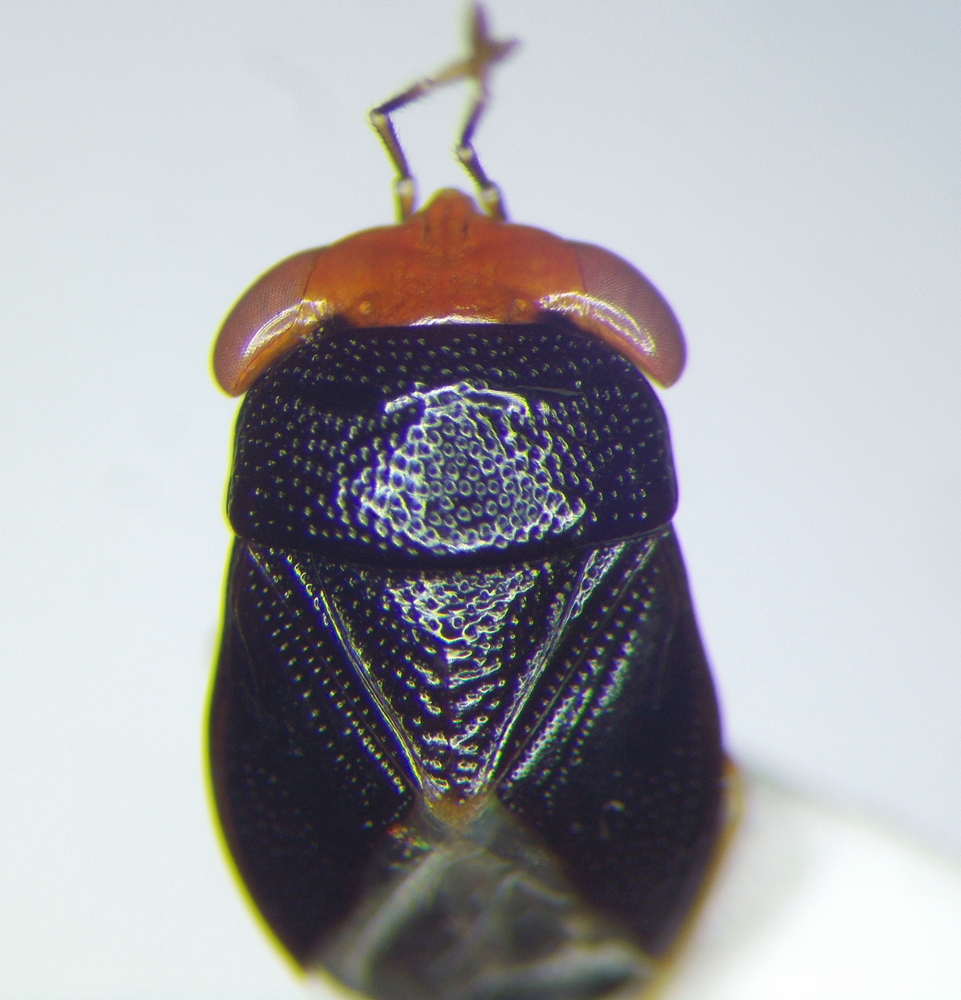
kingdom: Animalia
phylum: Arthropoda
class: Insecta
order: Hemiptera
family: Geocoridae
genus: Geocoris
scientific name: Geocoris erythrocephala
